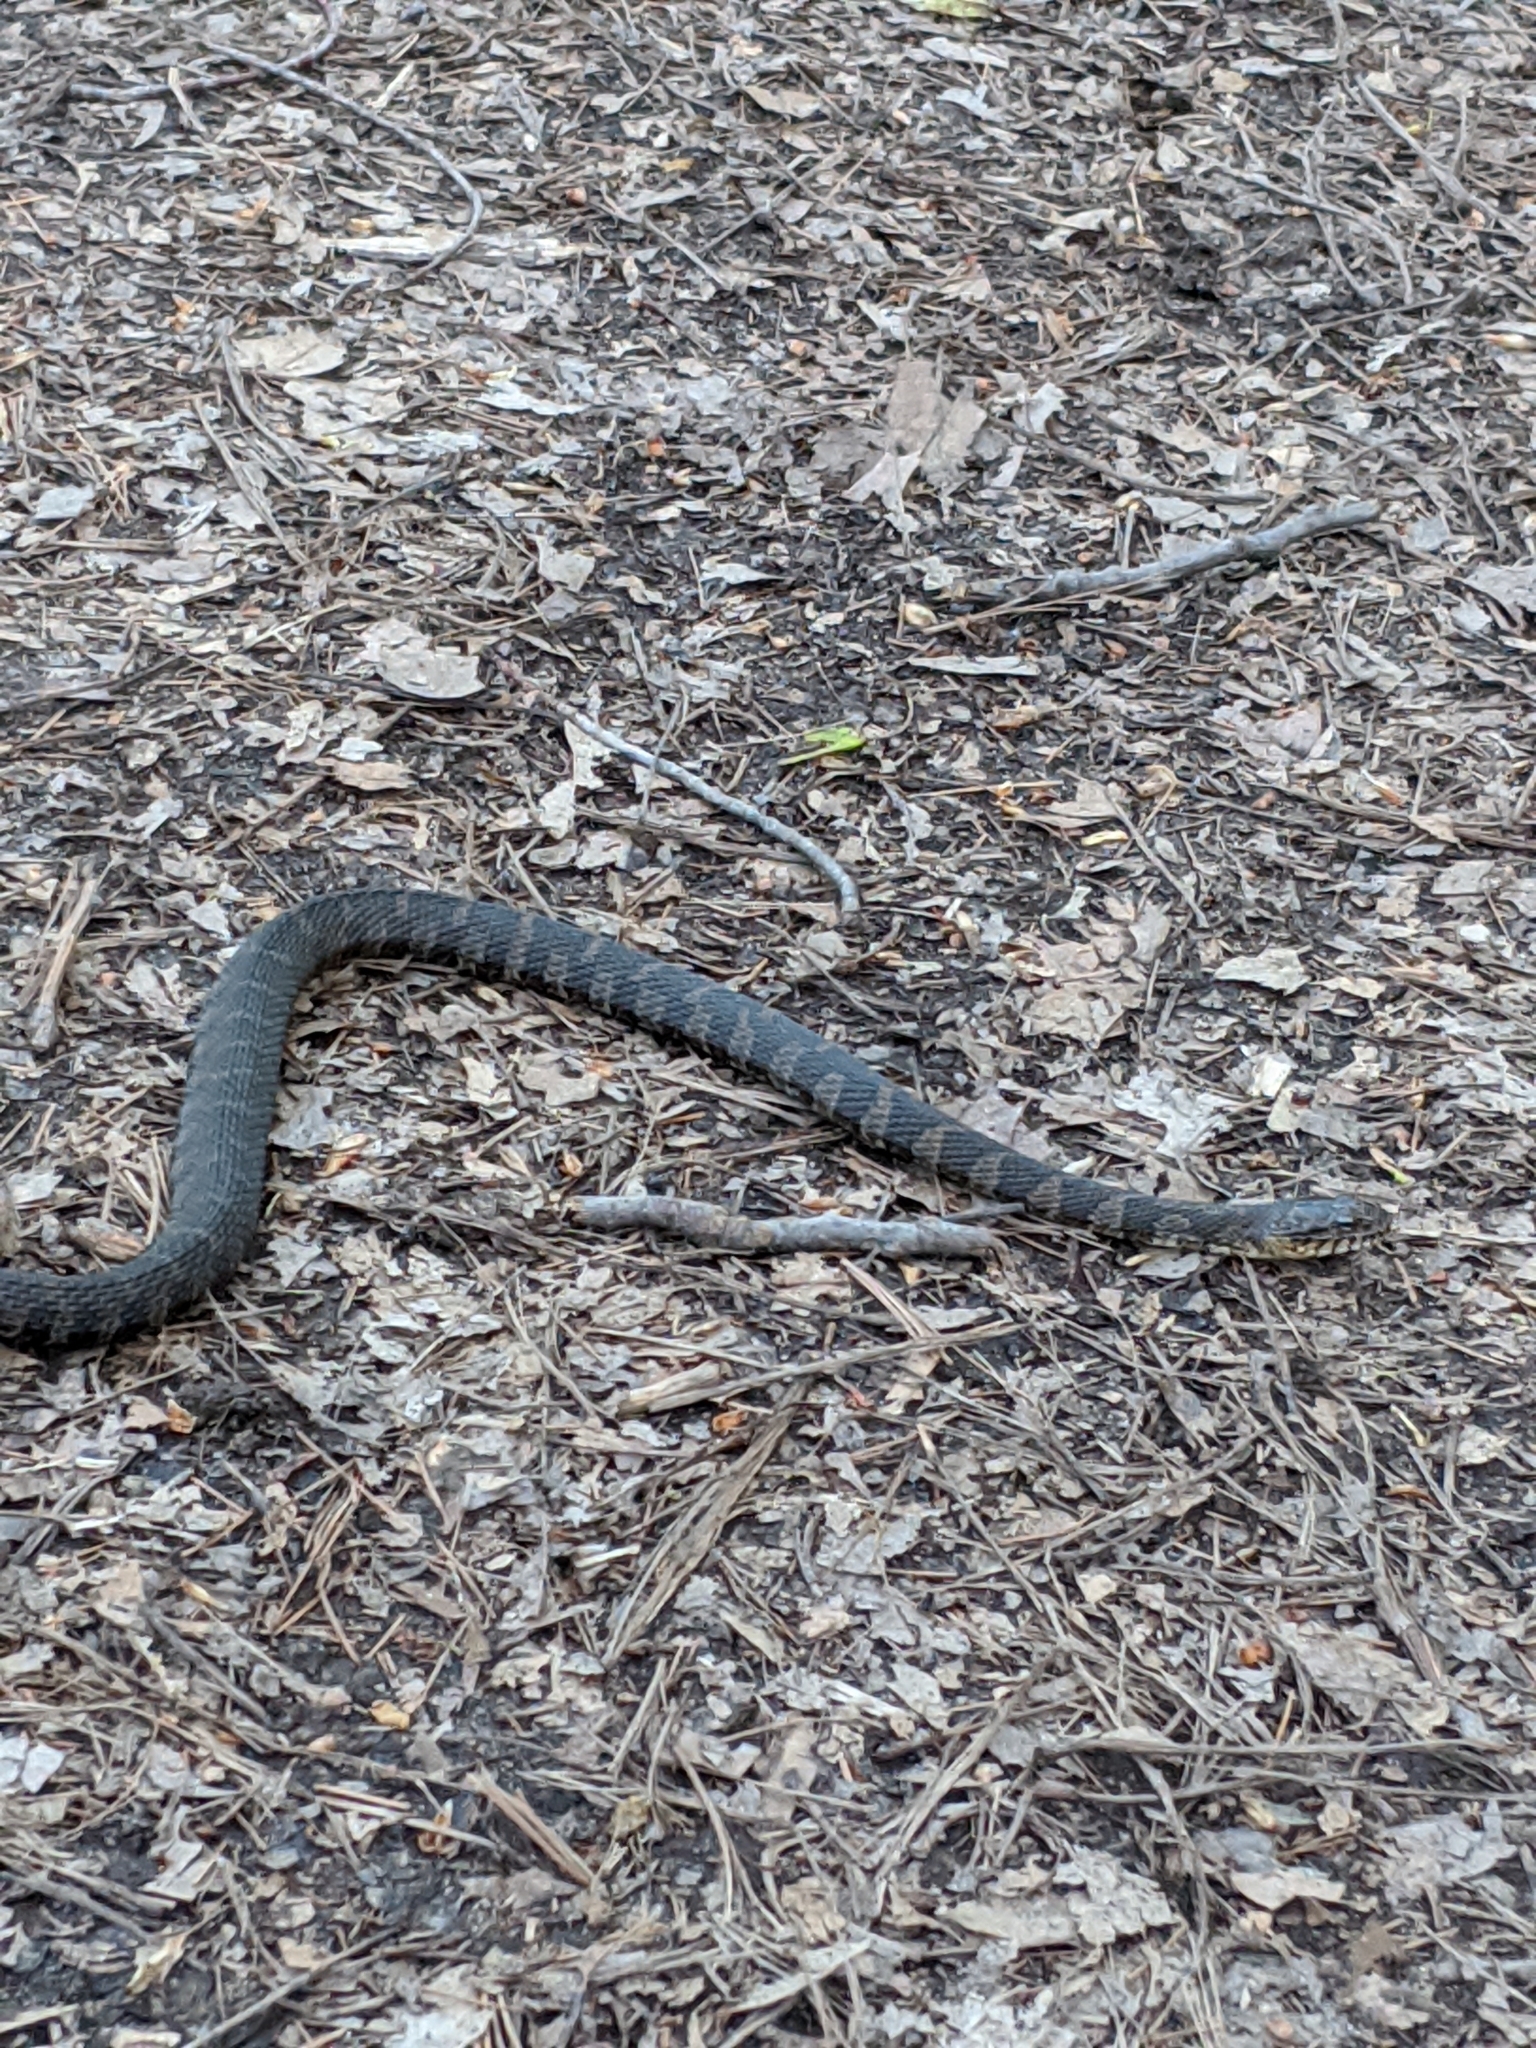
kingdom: Animalia
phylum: Chordata
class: Squamata
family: Colubridae
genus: Nerodia
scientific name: Nerodia sipedon
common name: Northern water snake
